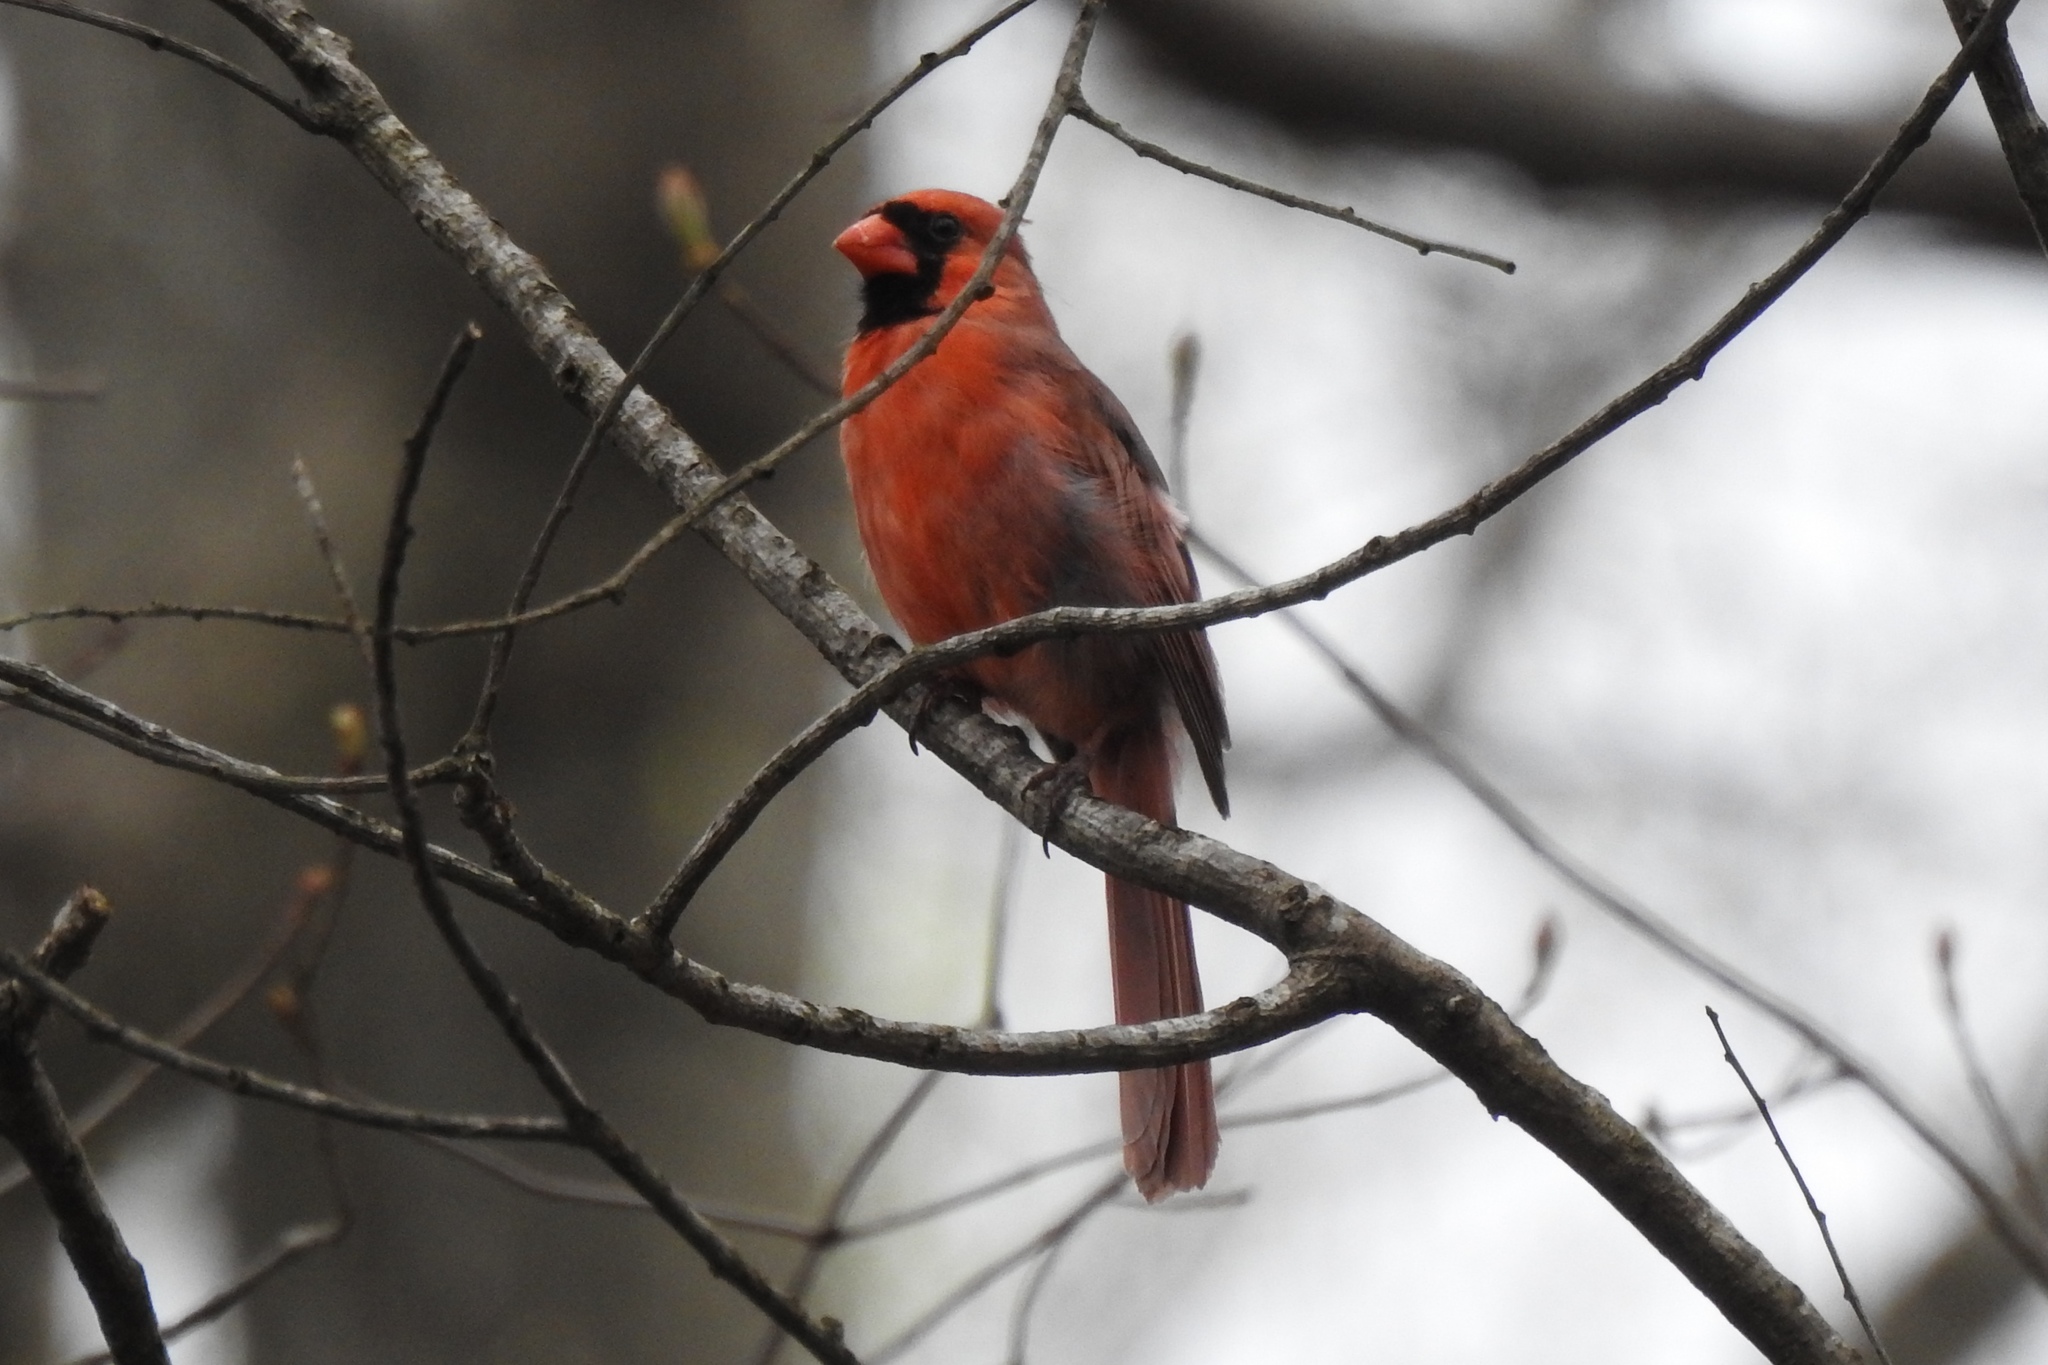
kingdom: Animalia
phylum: Chordata
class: Aves
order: Passeriformes
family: Cardinalidae
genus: Cardinalis
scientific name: Cardinalis cardinalis
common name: Northern cardinal
